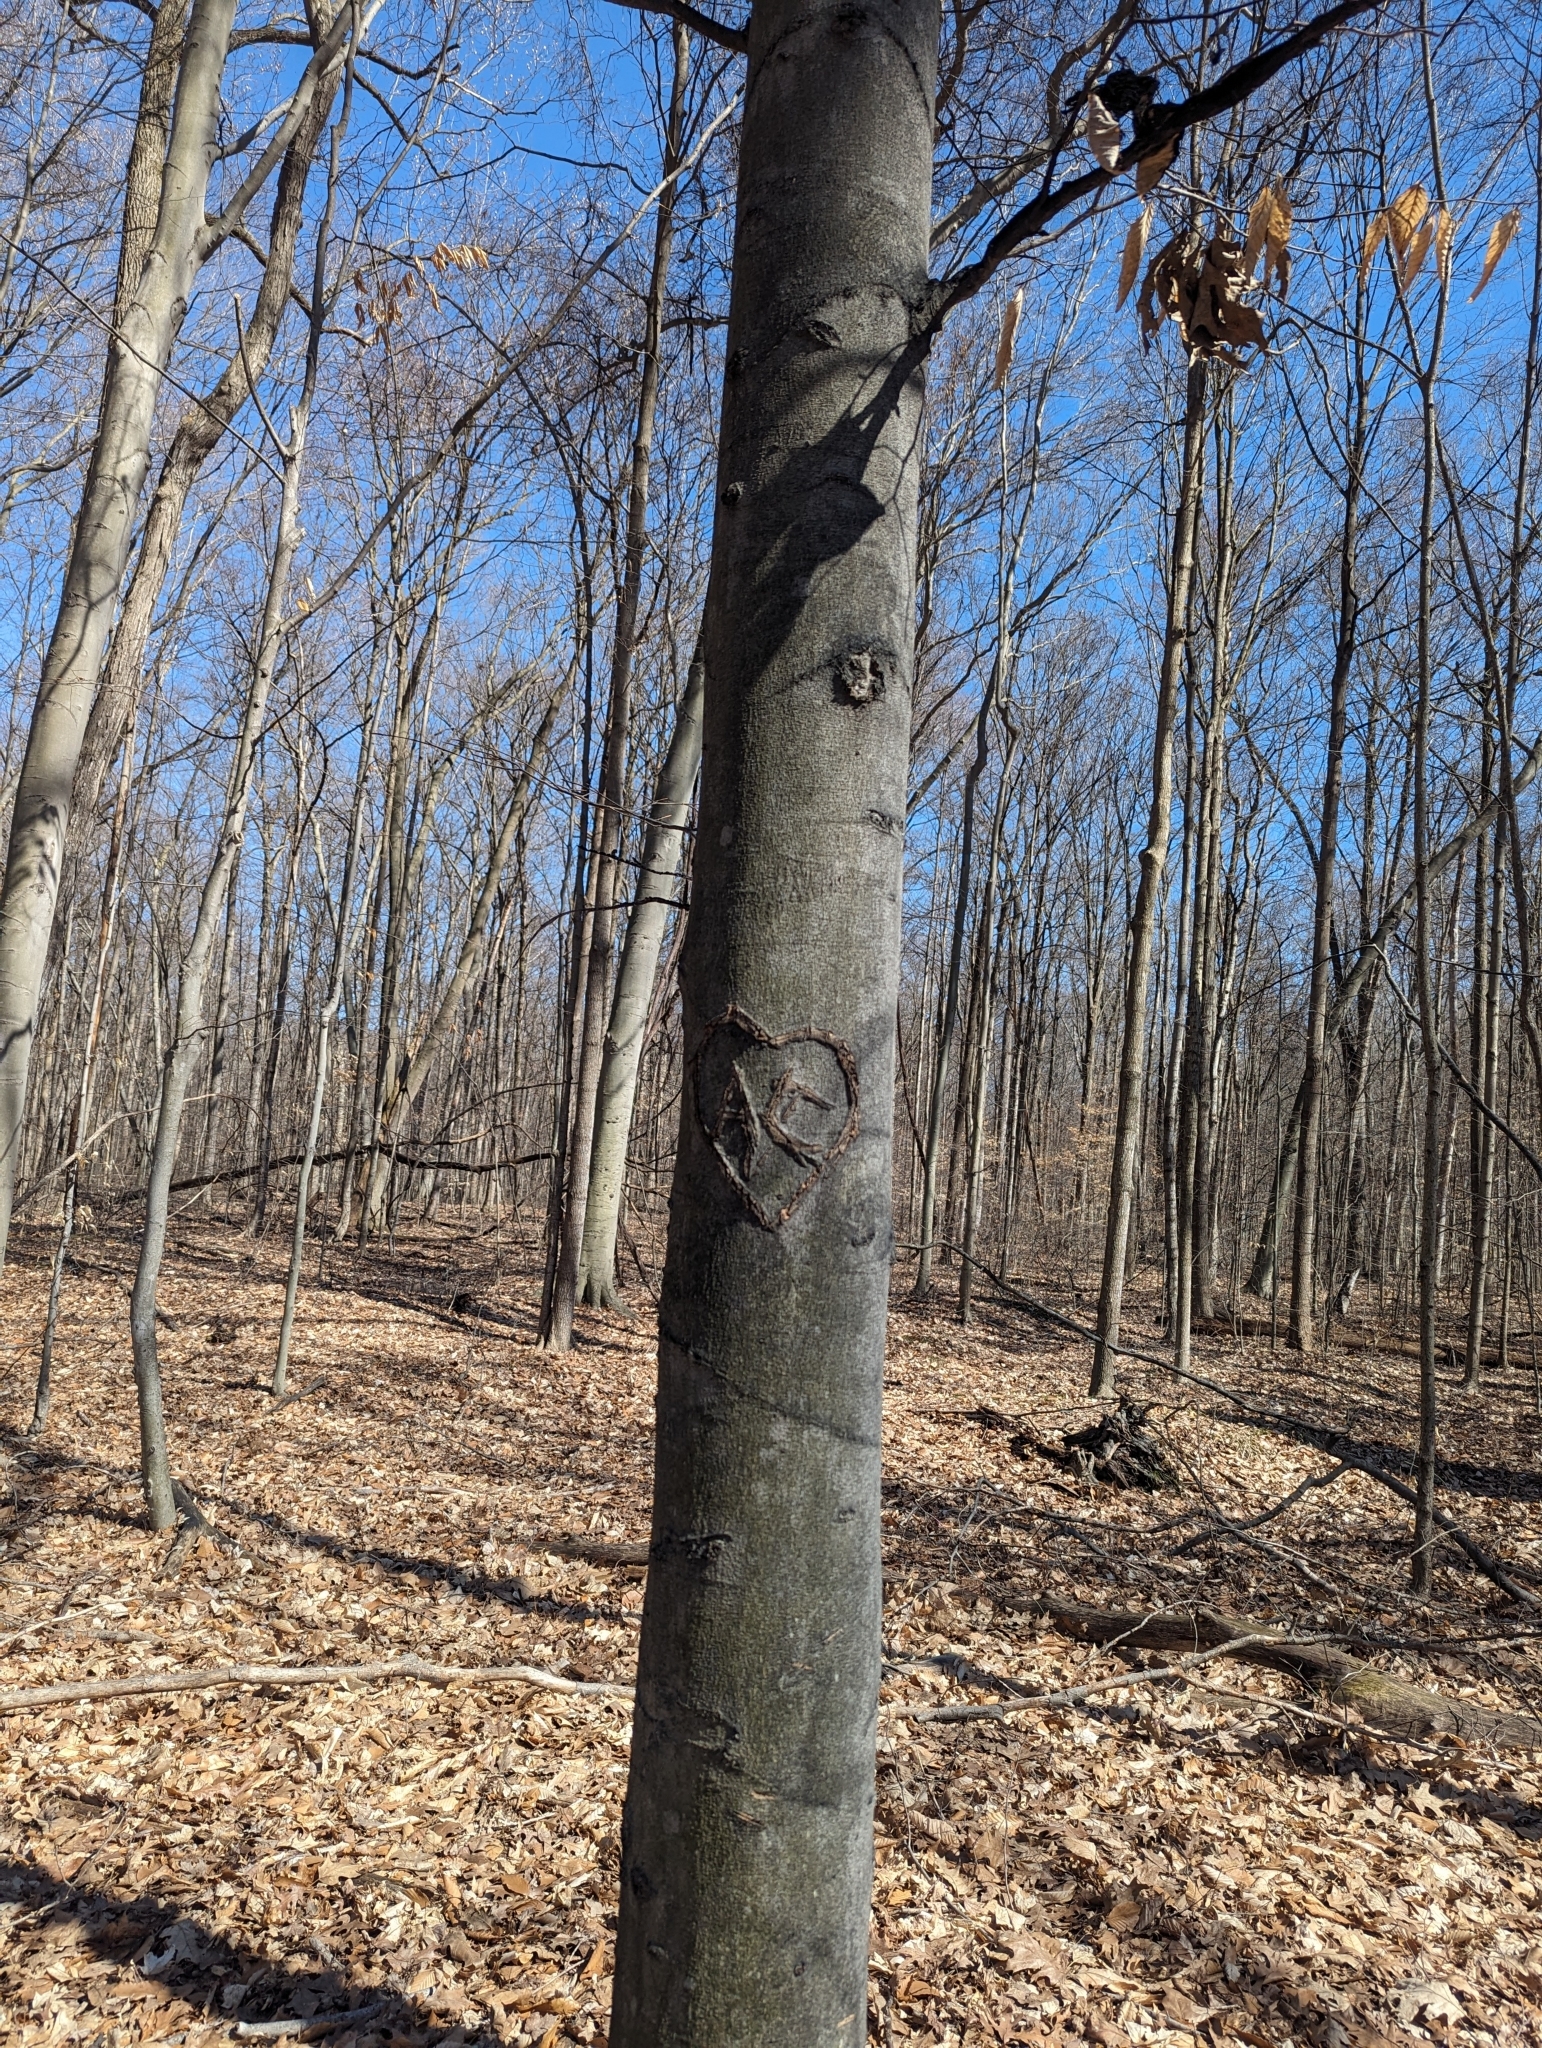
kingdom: Plantae
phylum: Tracheophyta
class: Magnoliopsida
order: Fagales
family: Fagaceae
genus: Fagus
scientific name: Fagus grandifolia
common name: American beech
